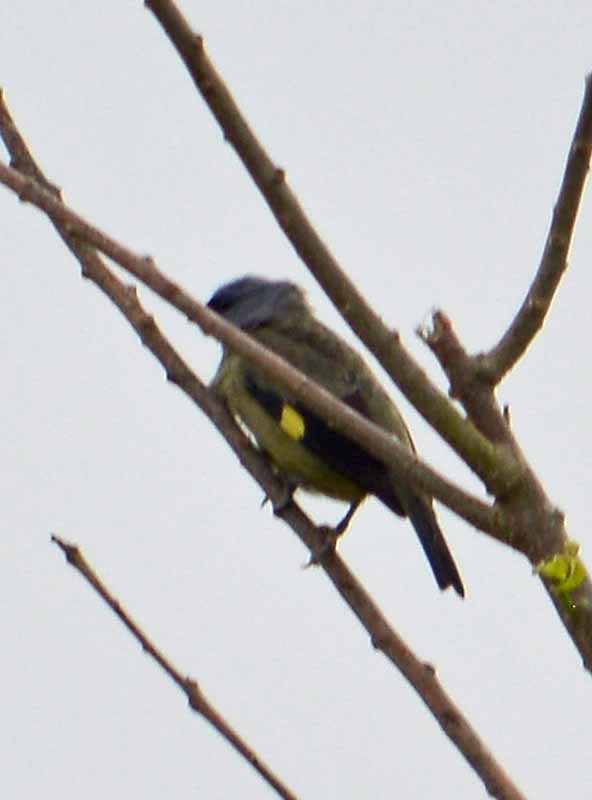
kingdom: Animalia
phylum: Chordata
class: Aves
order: Passeriformes
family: Thraupidae
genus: Thraupis
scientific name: Thraupis abbas
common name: Yellow-winged tanager
